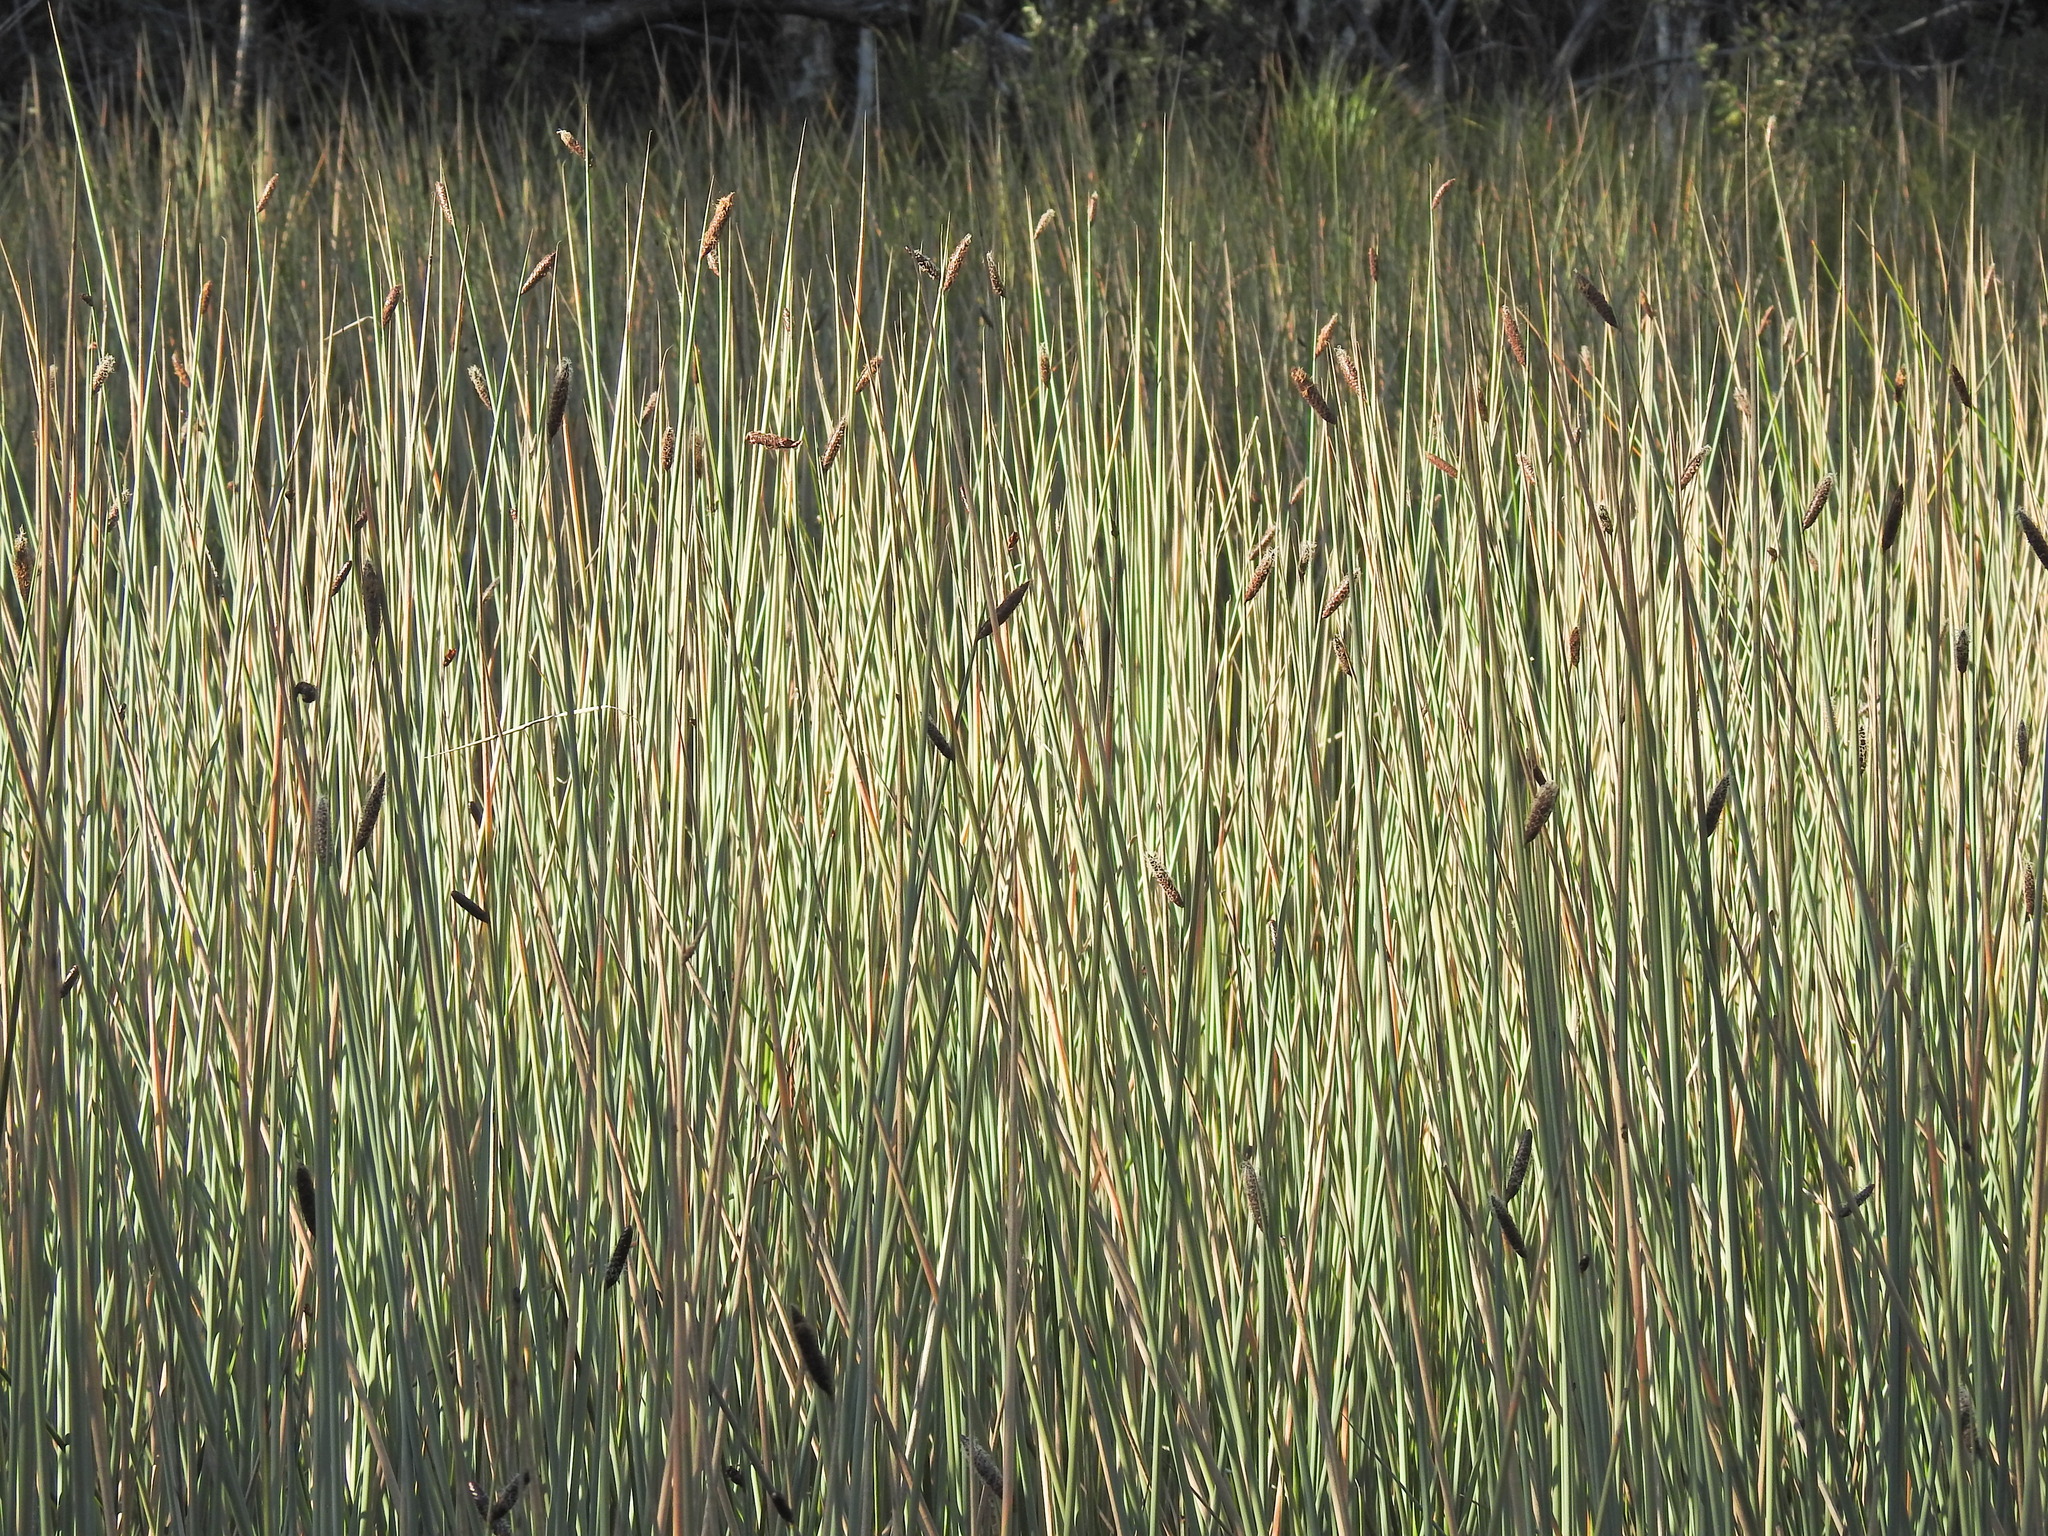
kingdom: Plantae
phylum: Tracheophyta
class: Liliopsida
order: Poales
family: Cyperaceae
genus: Lepironia
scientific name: Lepironia articulata
